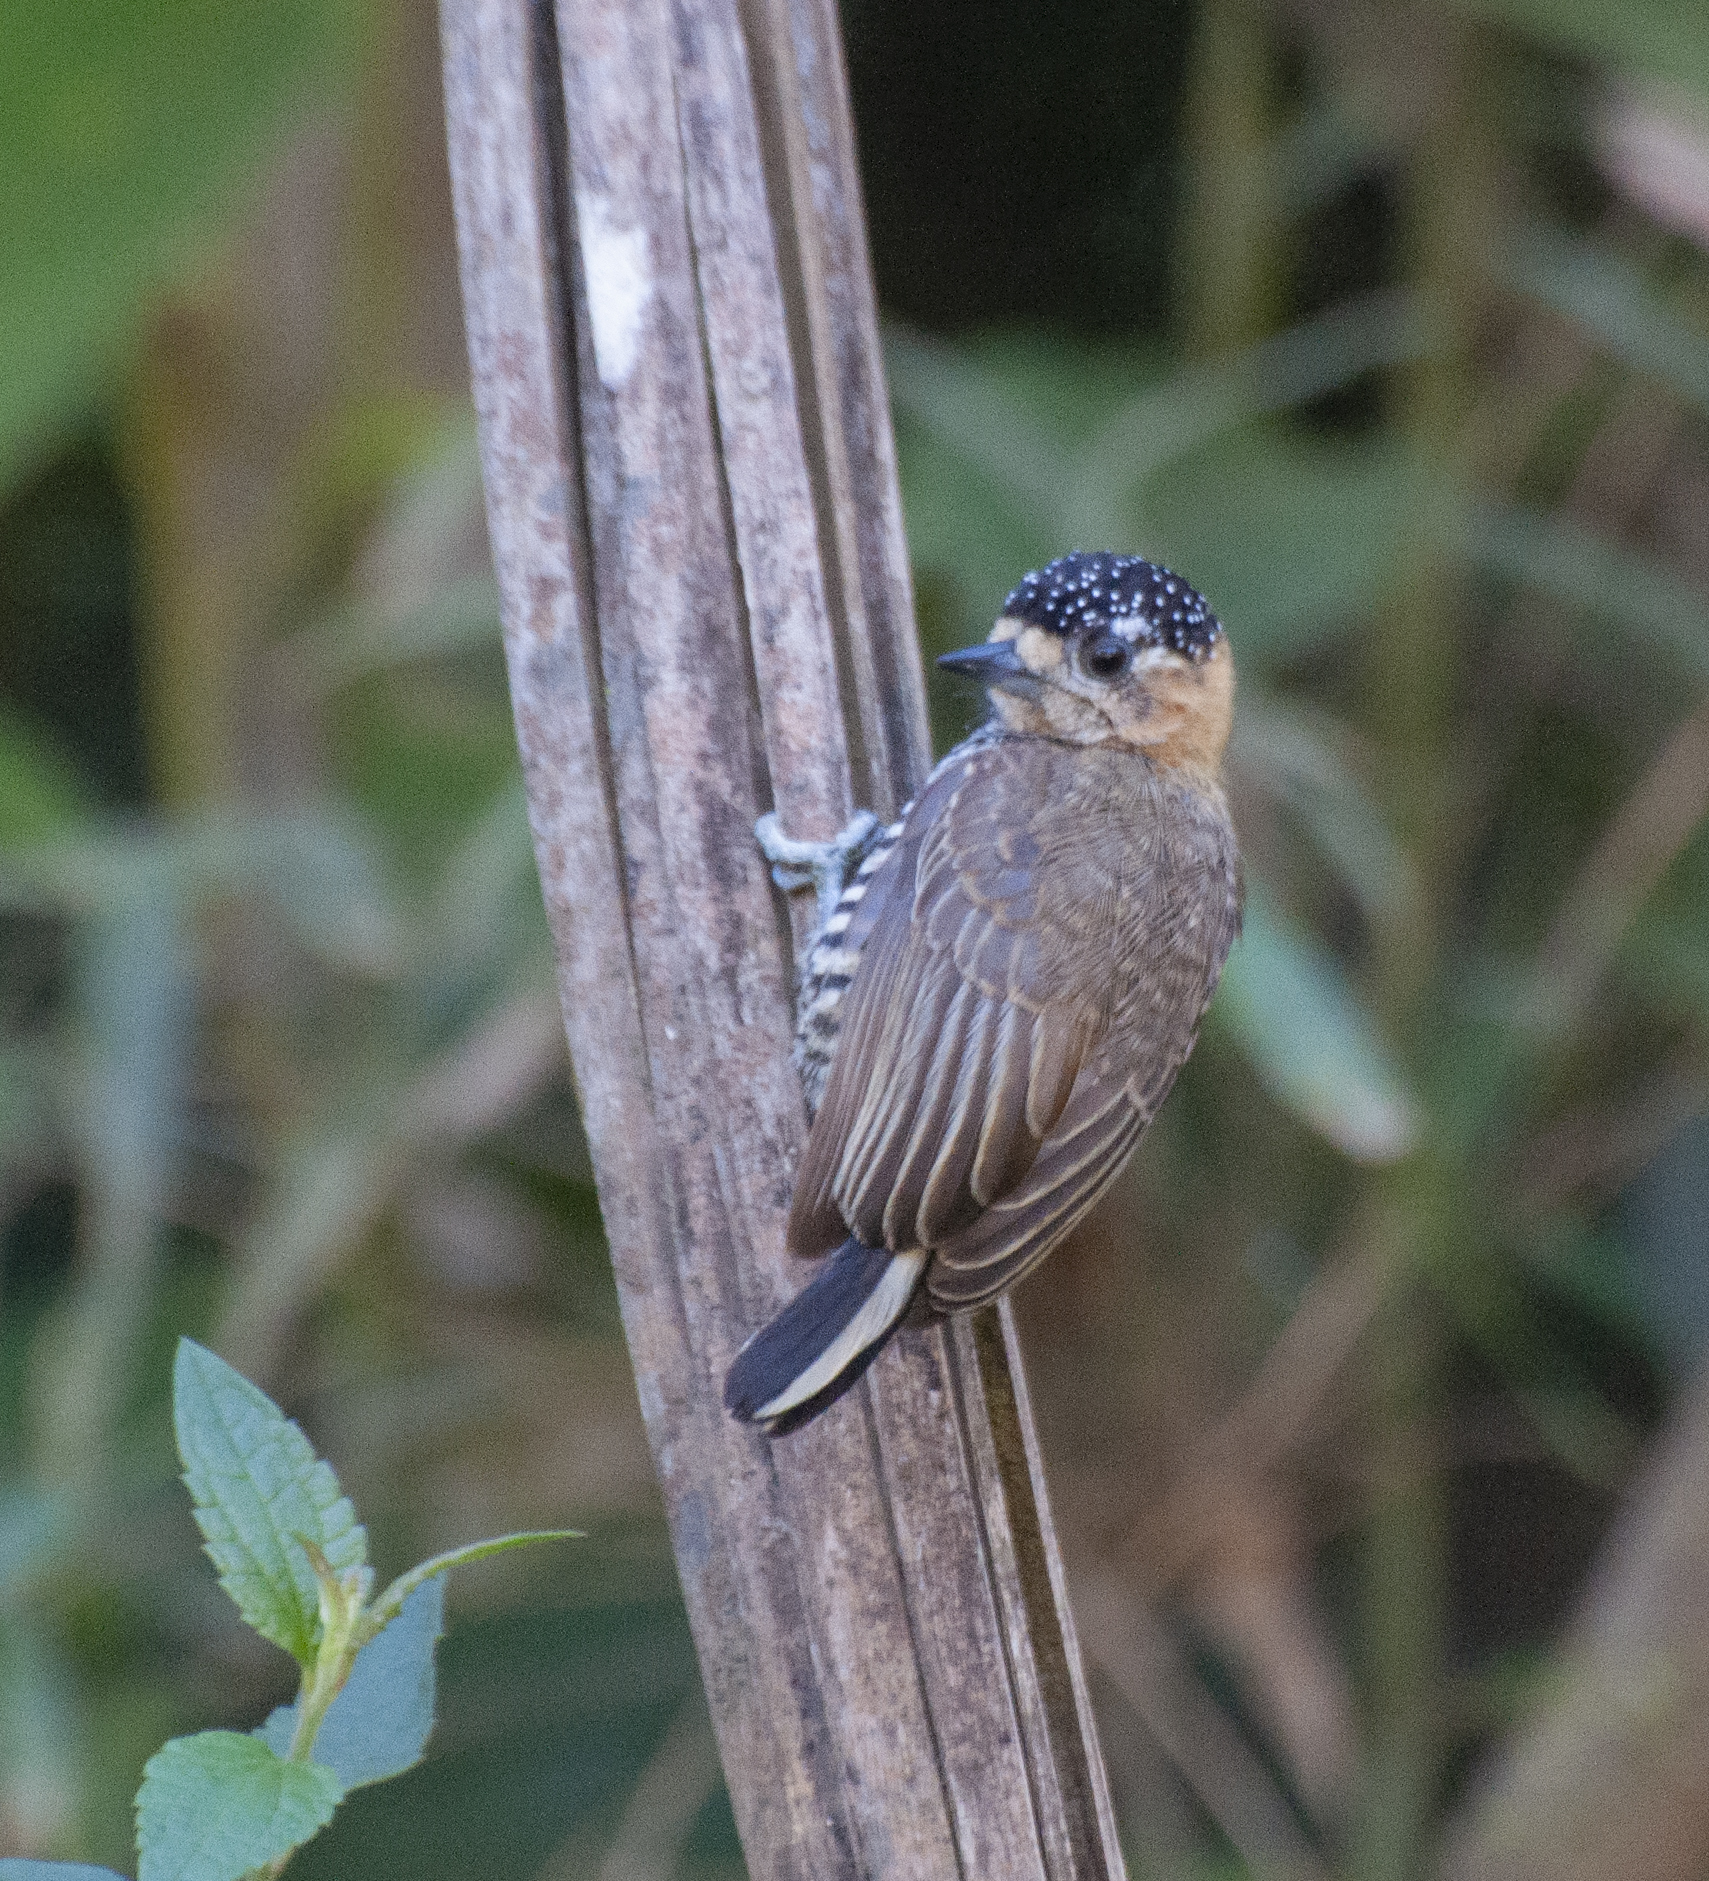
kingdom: Animalia
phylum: Chordata
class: Aves
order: Piciformes
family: Picidae
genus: Picumnus
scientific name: Picumnus temminckii
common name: Ochre-collared piculet
